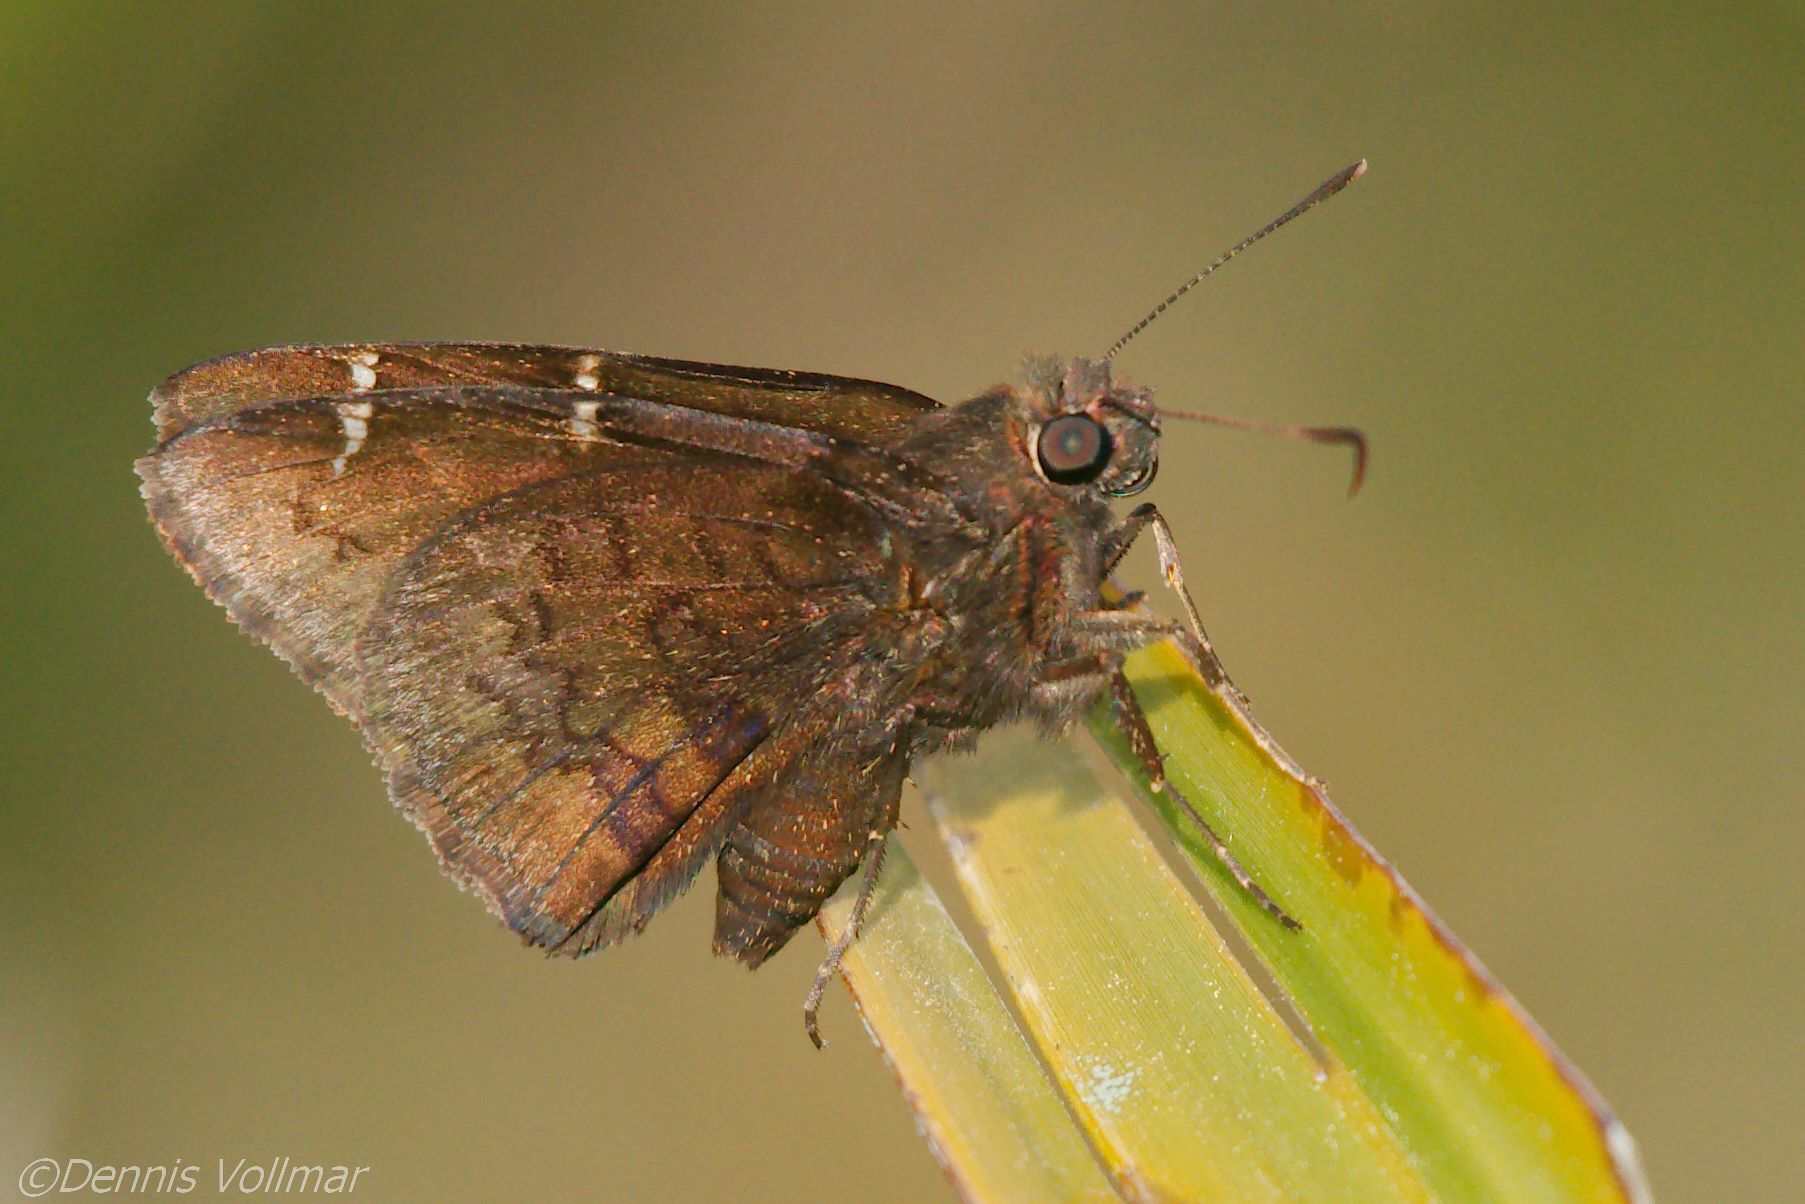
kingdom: Animalia
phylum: Arthropoda
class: Insecta
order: Lepidoptera
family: Hesperiidae
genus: Thorybes
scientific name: Thorybes pylades
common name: Northern cloudywing
